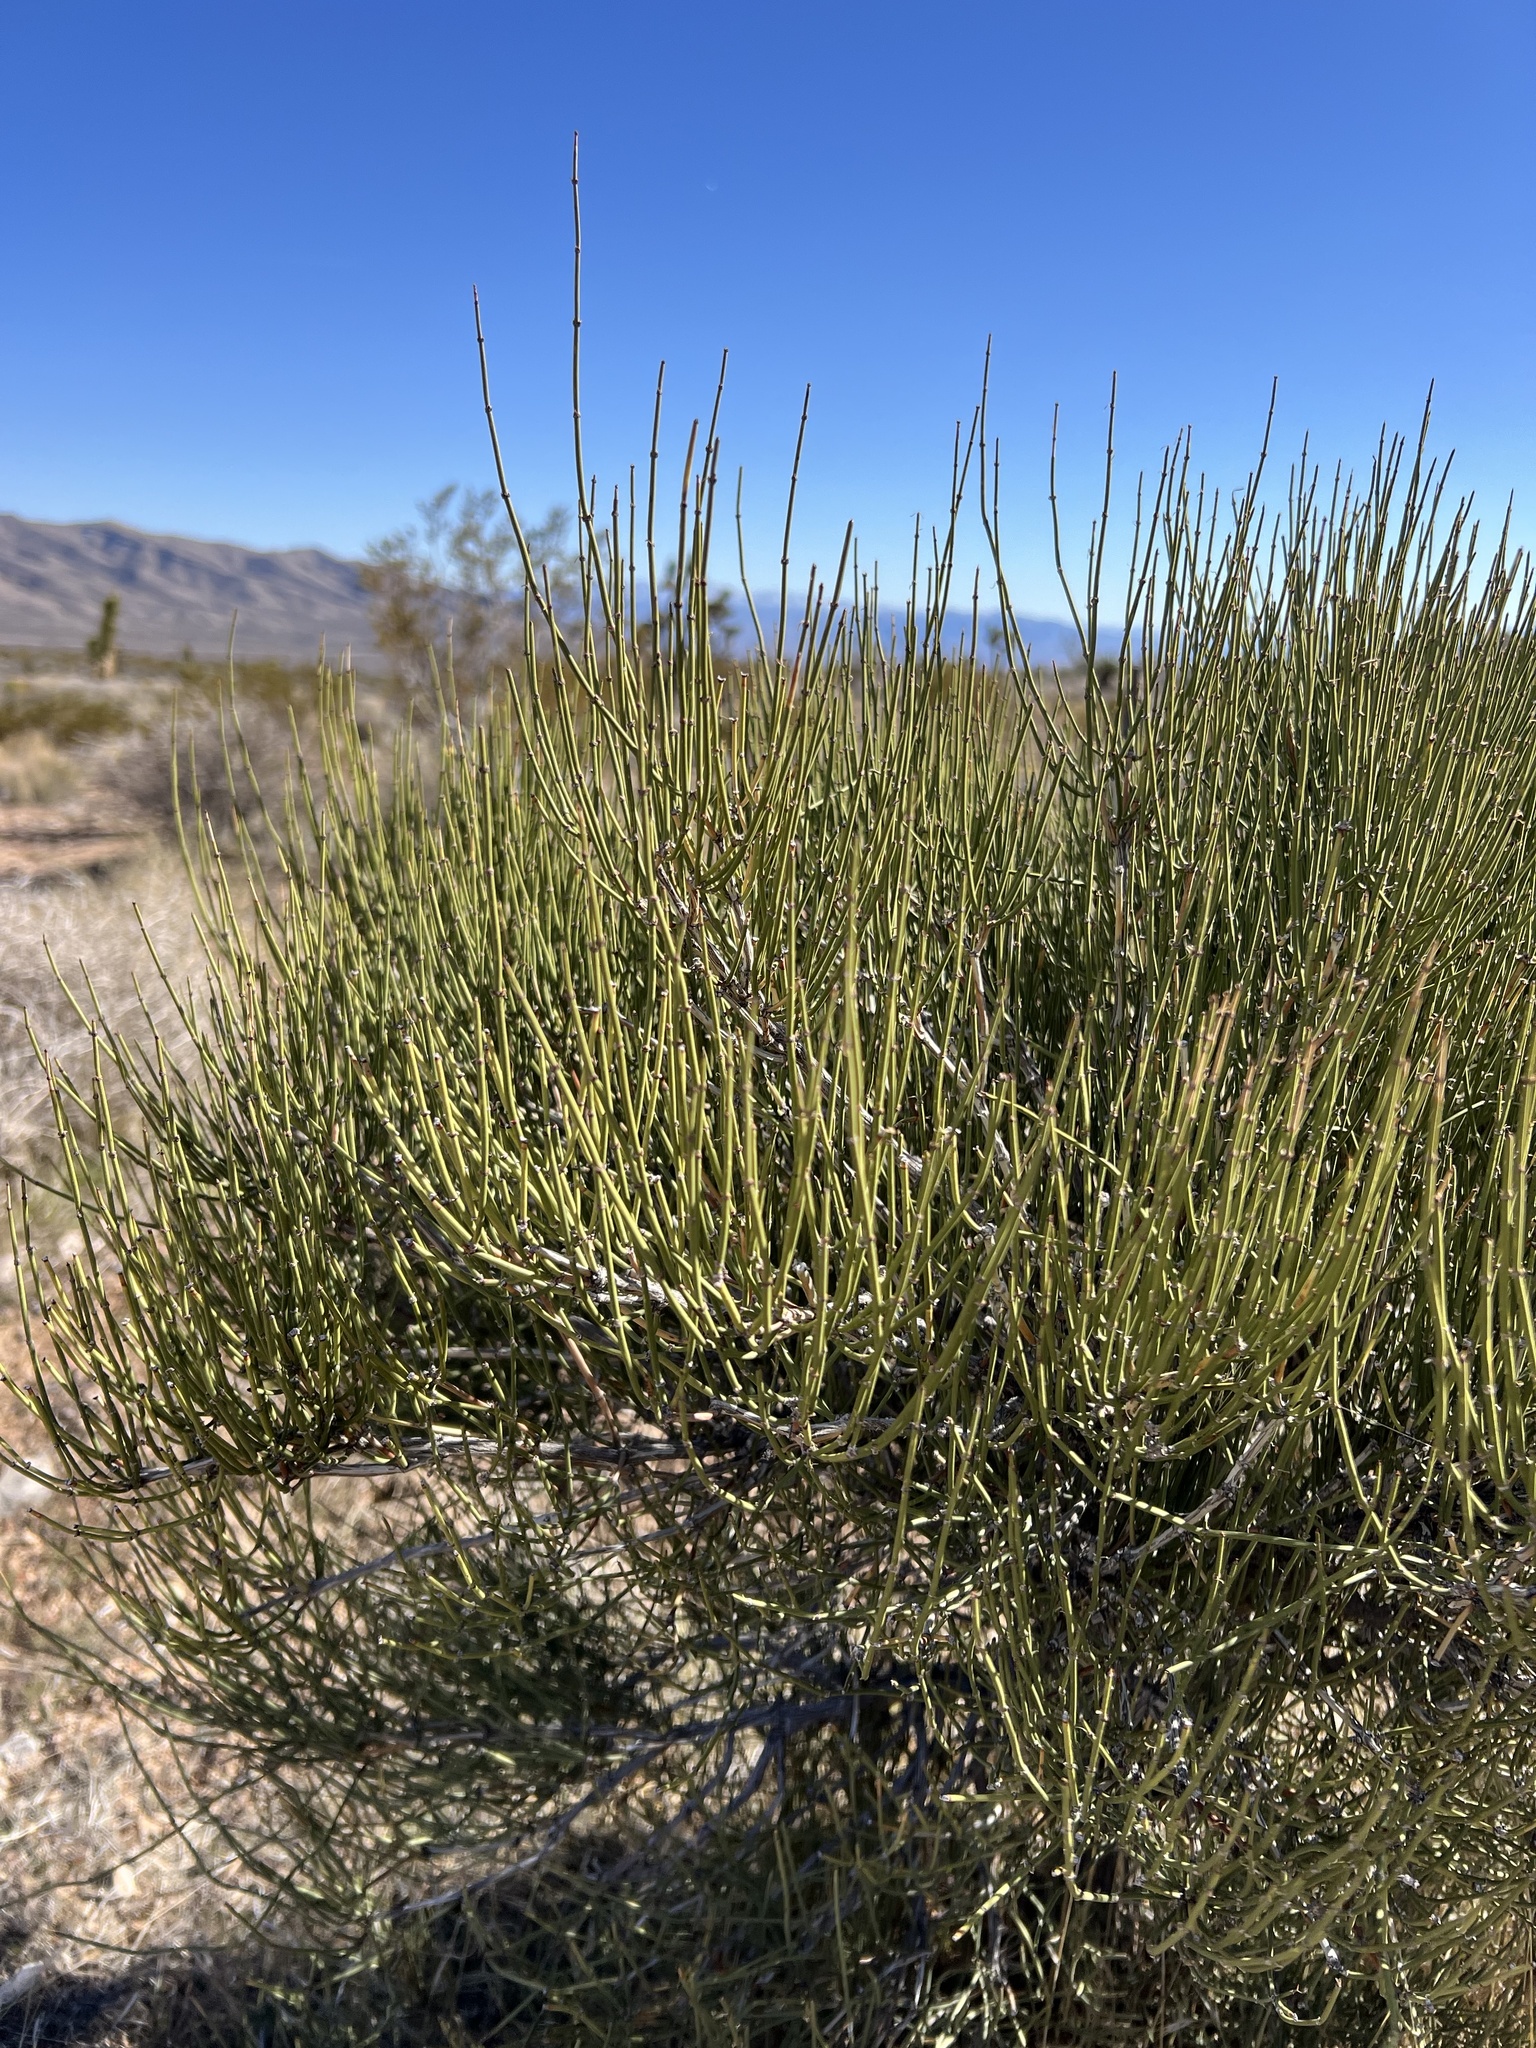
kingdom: Plantae
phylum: Tracheophyta
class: Gnetopsida
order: Ephedrales
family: Ephedraceae
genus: Ephedra
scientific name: Ephedra viridis
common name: Green ephedra
